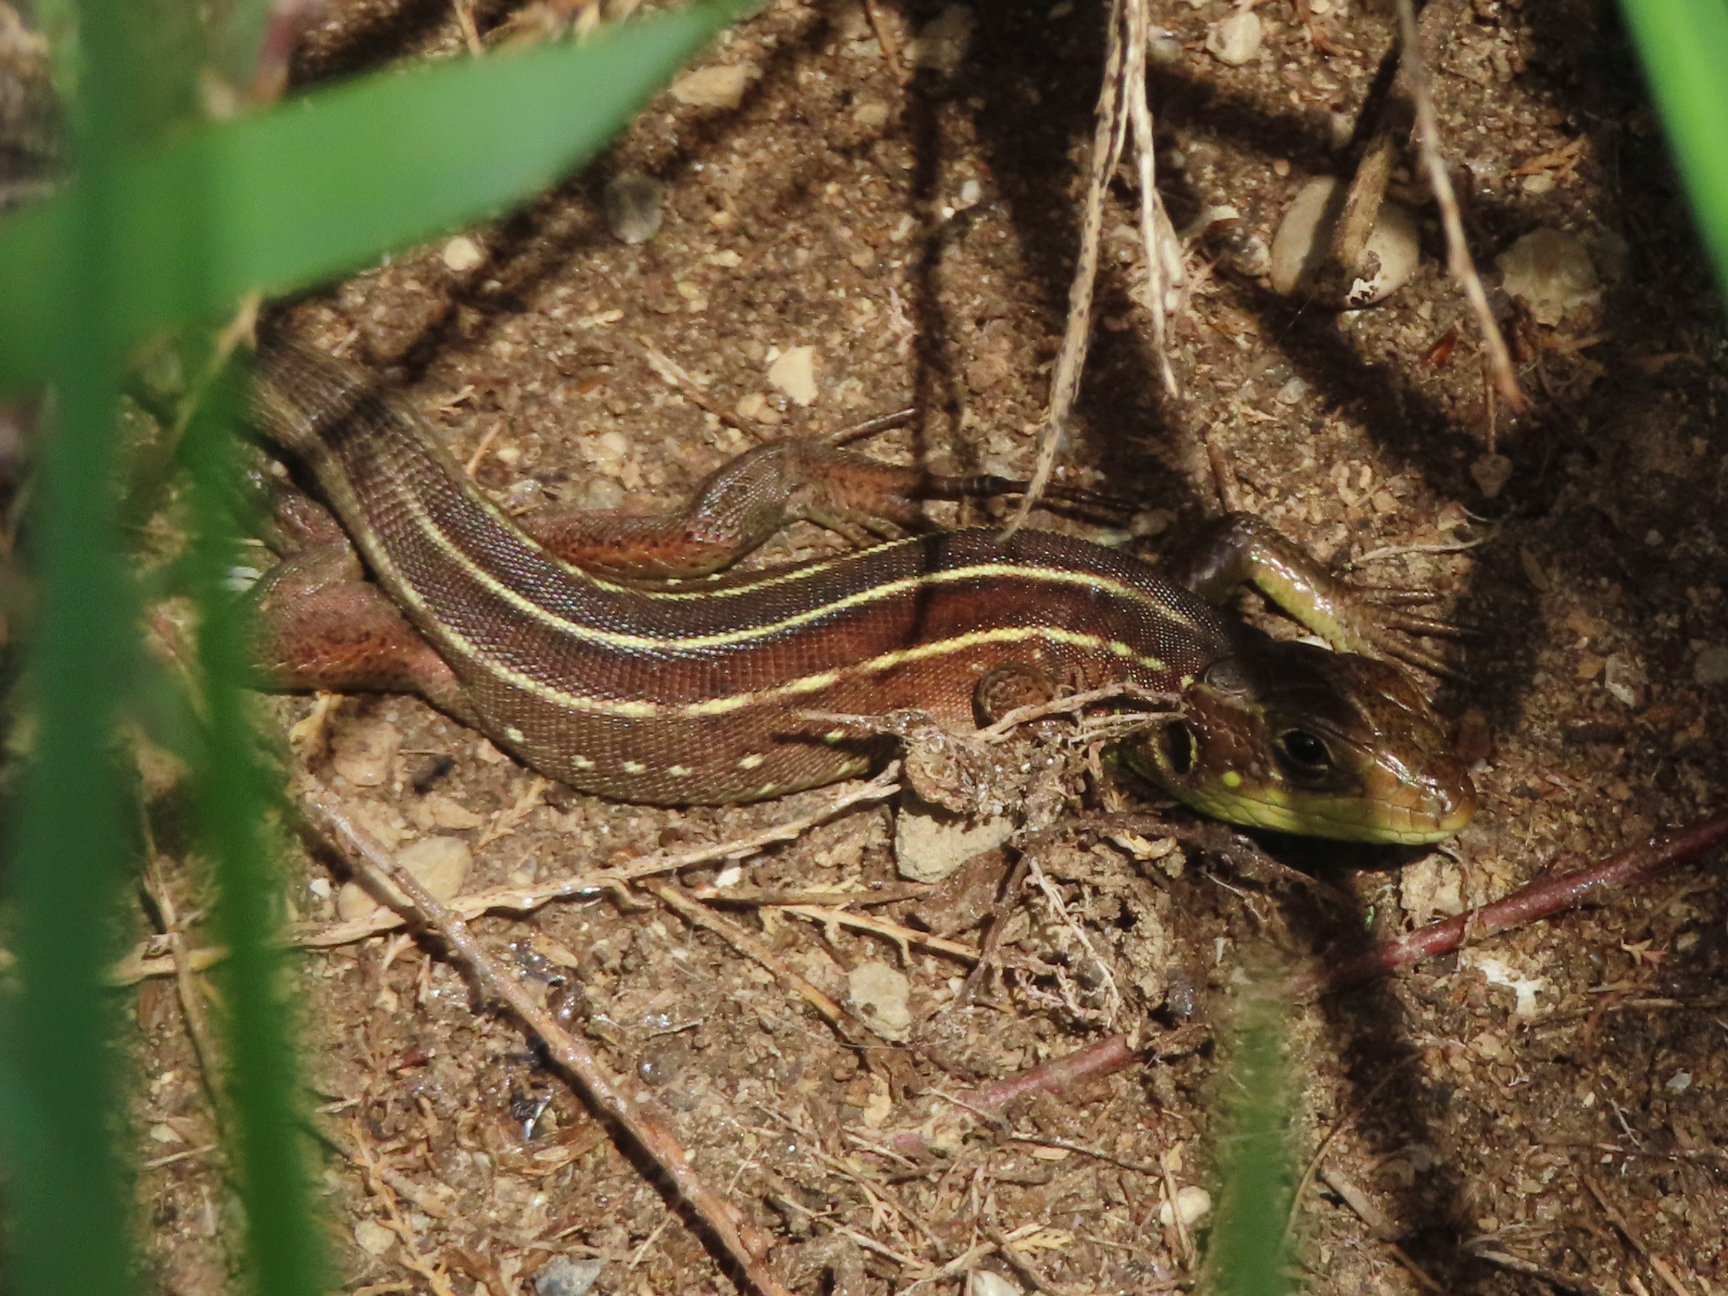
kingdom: Animalia
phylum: Chordata
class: Squamata
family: Lacertidae
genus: Lacerta
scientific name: Lacerta trilineata
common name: Balkan green lizard
